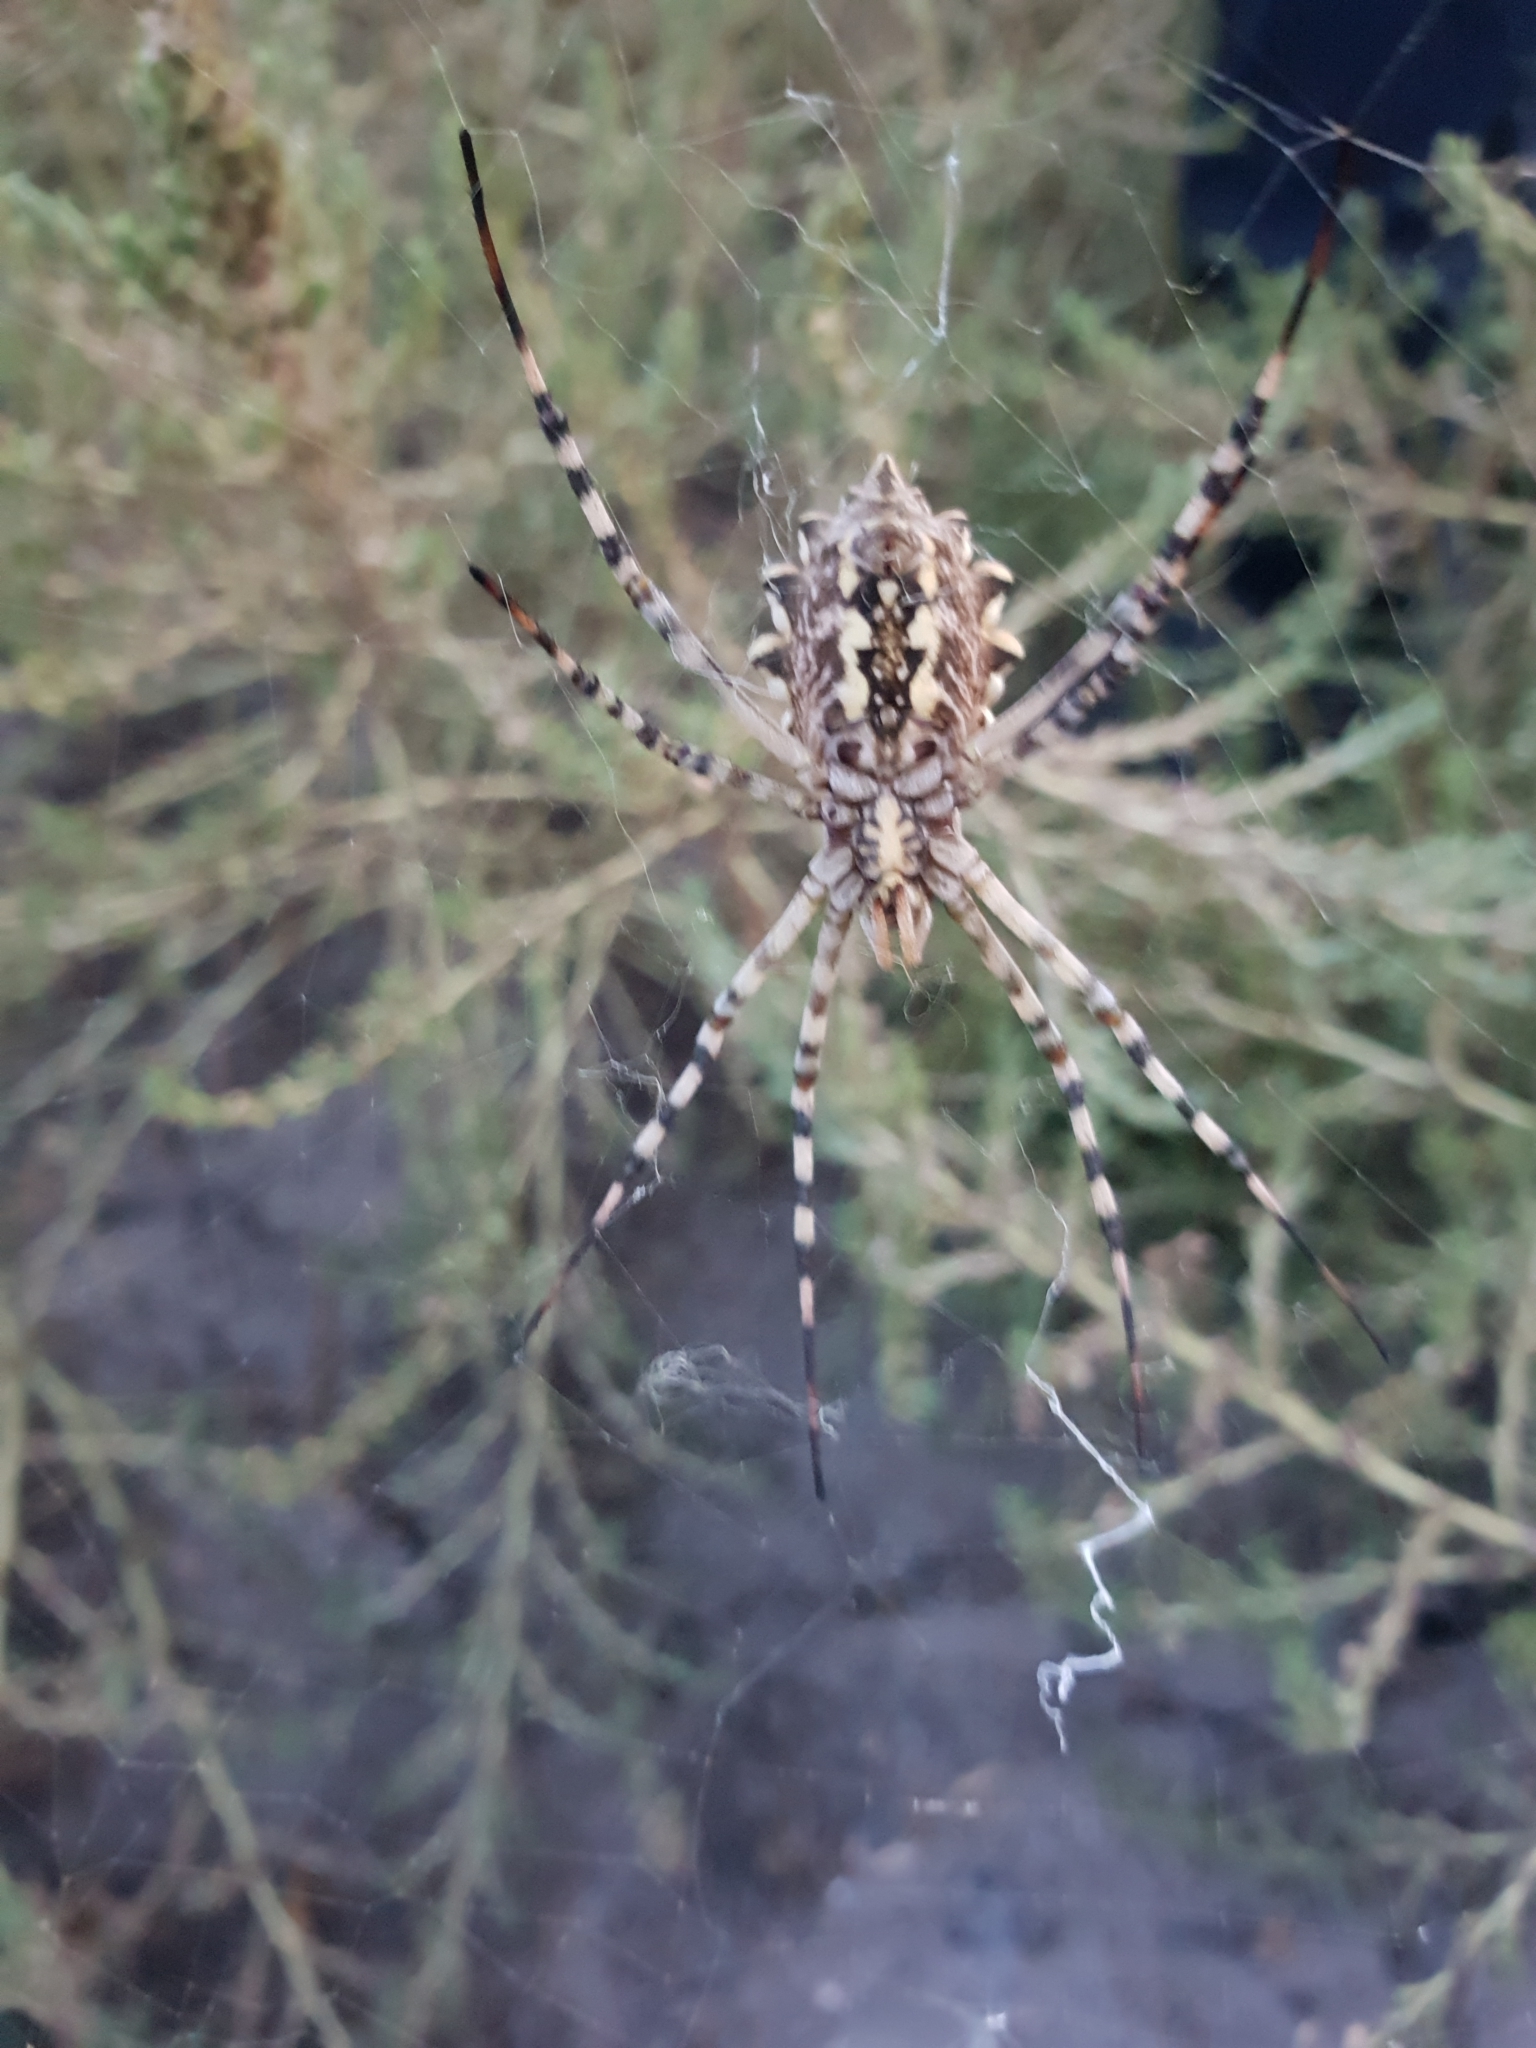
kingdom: Animalia
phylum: Arthropoda
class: Arachnida
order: Araneae
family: Araneidae
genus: Argiope
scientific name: Argiope lobata
